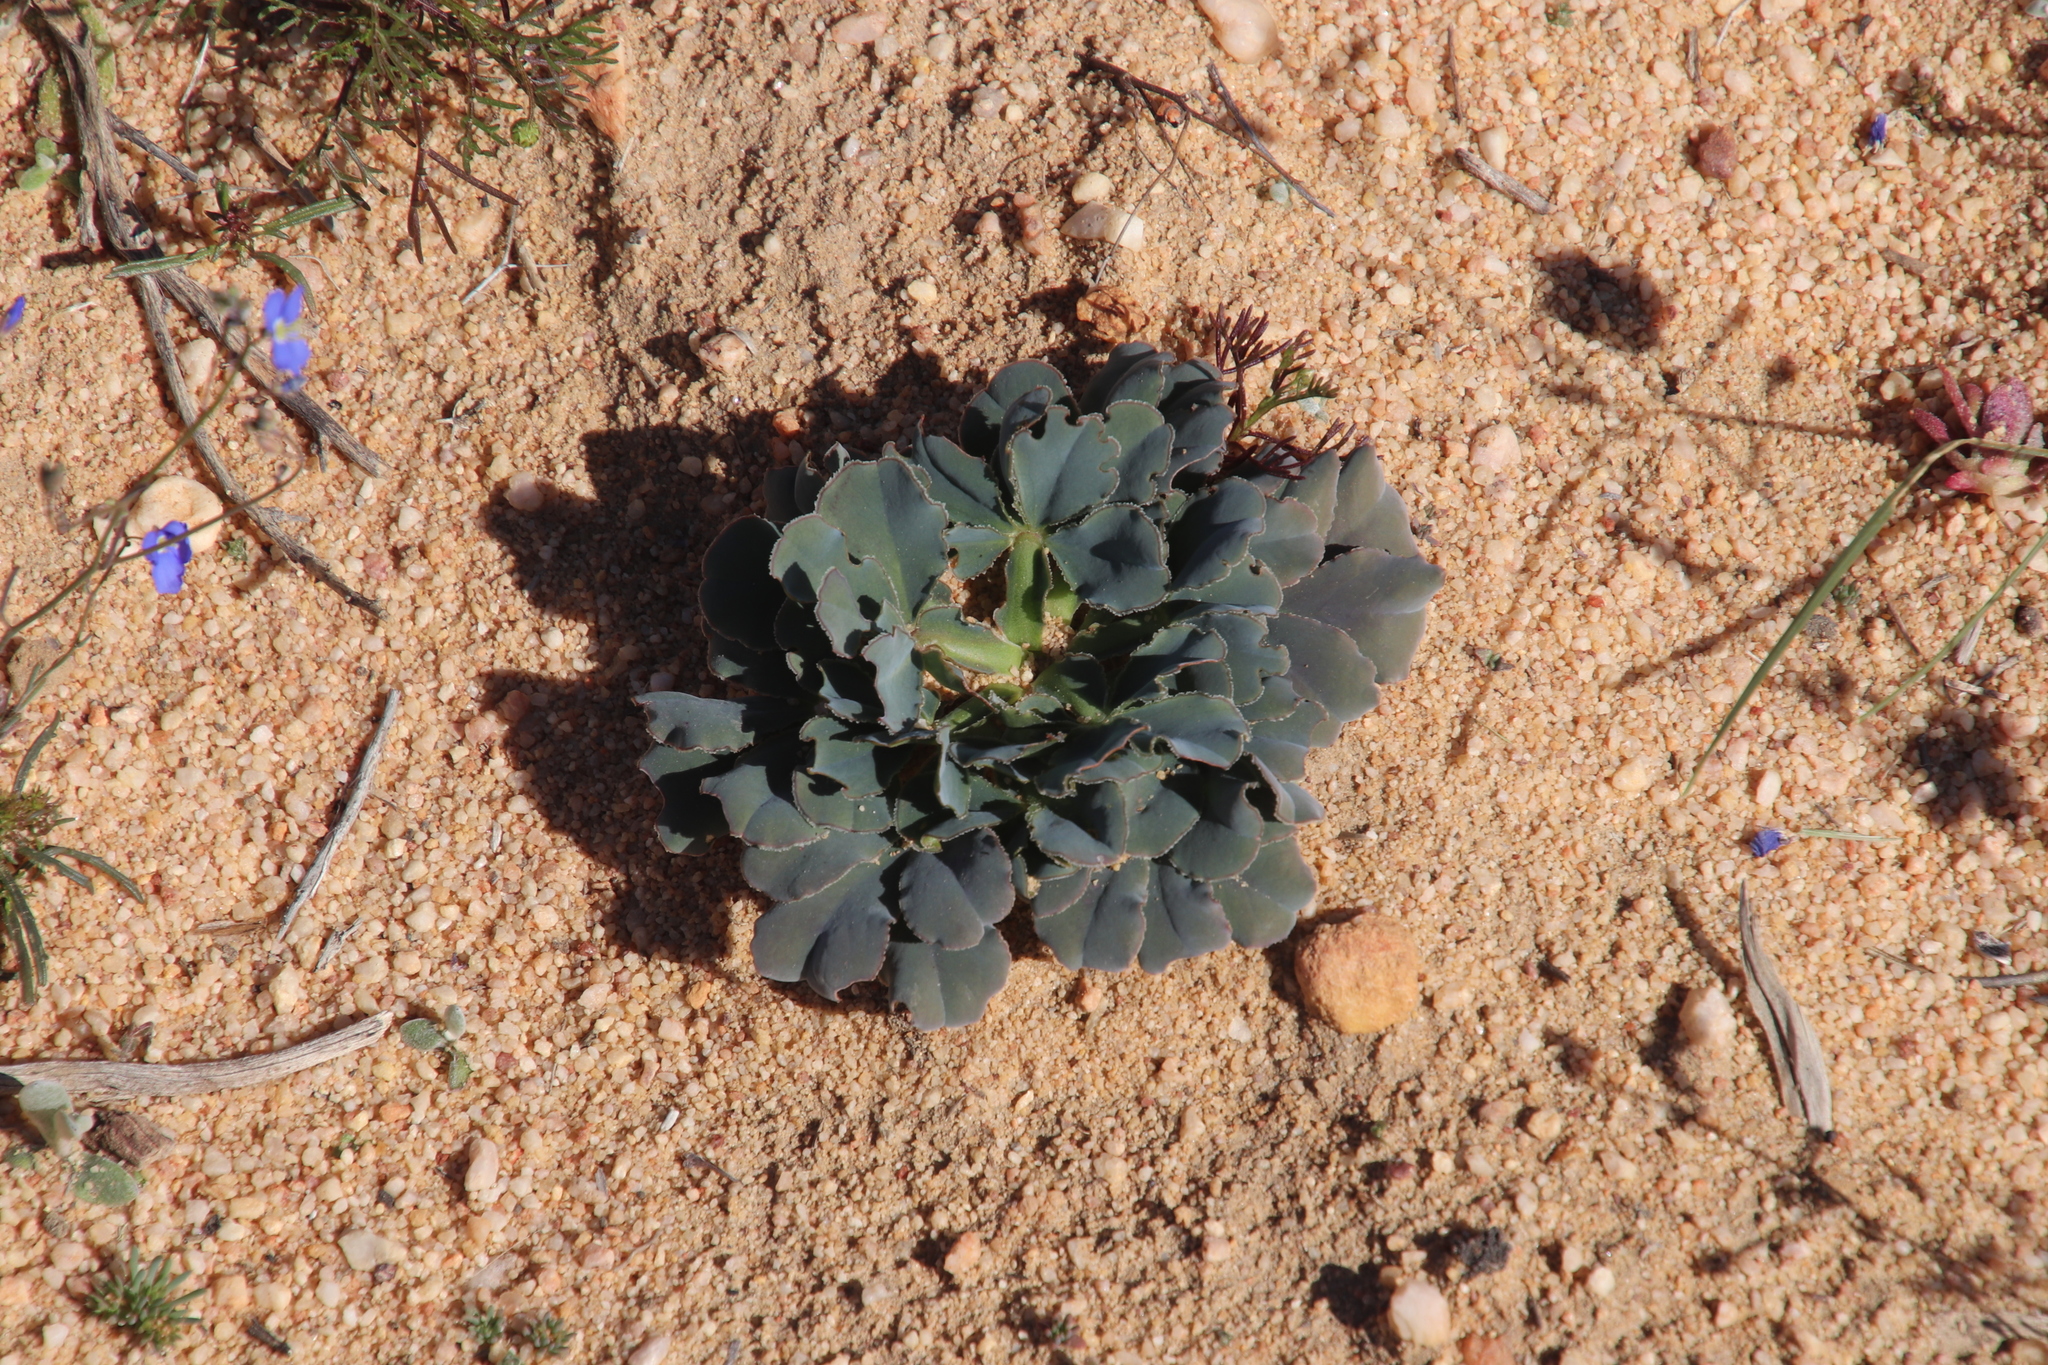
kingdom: Plantae
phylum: Tracheophyta
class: Magnoliopsida
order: Oxalidales
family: Oxalidaceae
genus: Oxalis
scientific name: Oxalis flava
